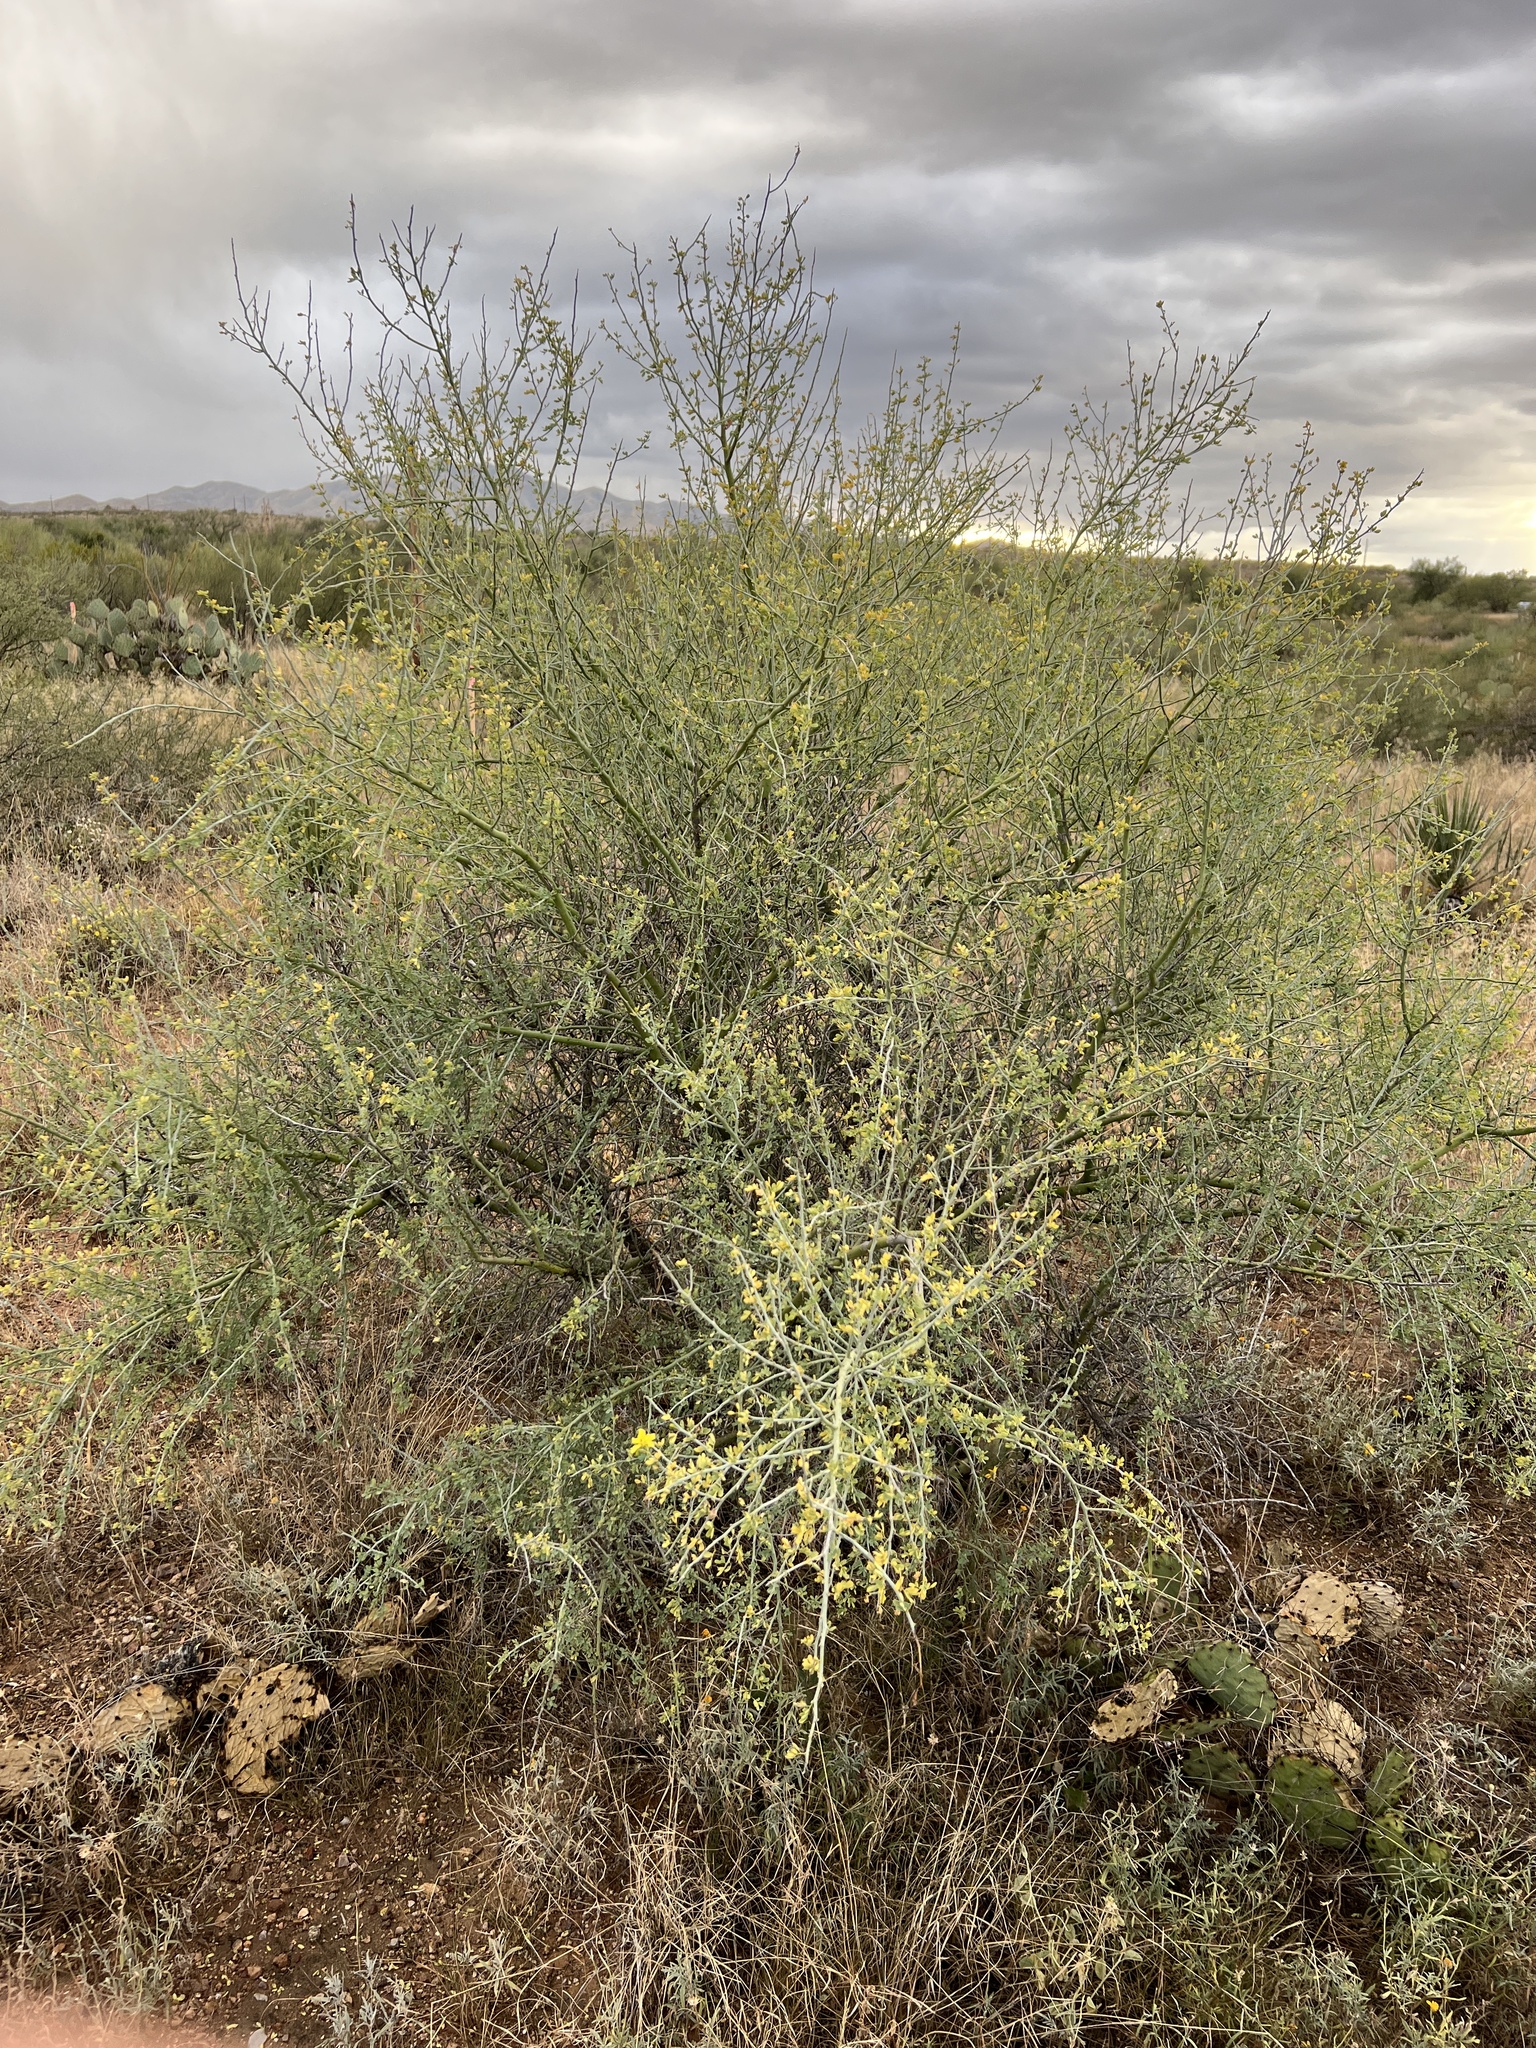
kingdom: Plantae
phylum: Tracheophyta
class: Magnoliopsida
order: Fabales
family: Fabaceae
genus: Parkinsonia
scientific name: Parkinsonia microphylla
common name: Yellow paloverde
